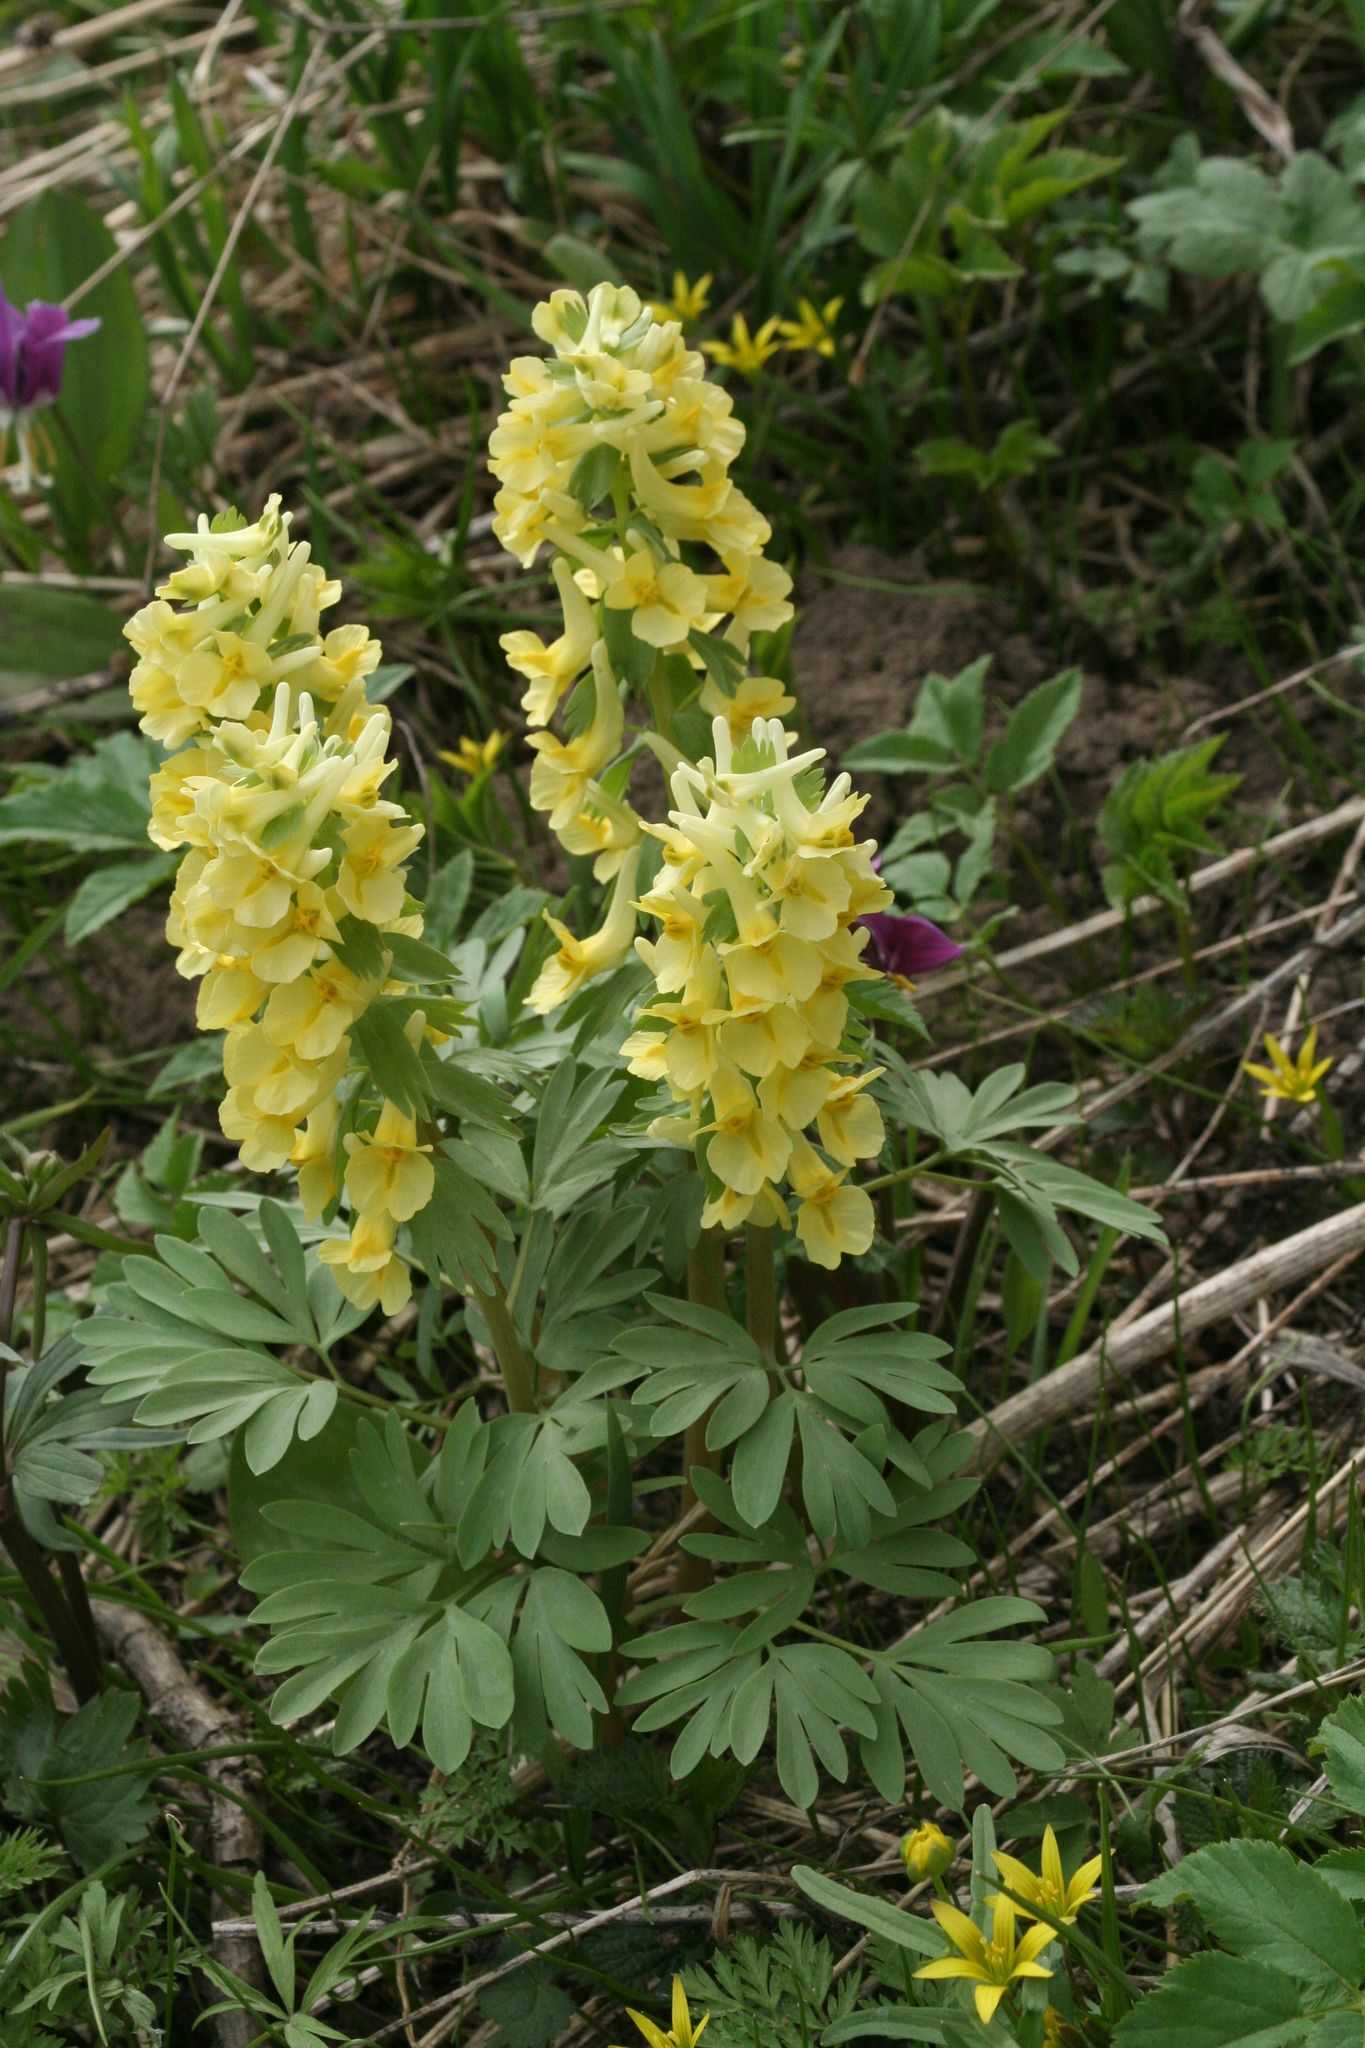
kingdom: Plantae
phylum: Tracheophyta
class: Magnoliopsida
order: Ranunculales
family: Papaveraceae
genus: Corydalis
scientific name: Corydalis bracteata
